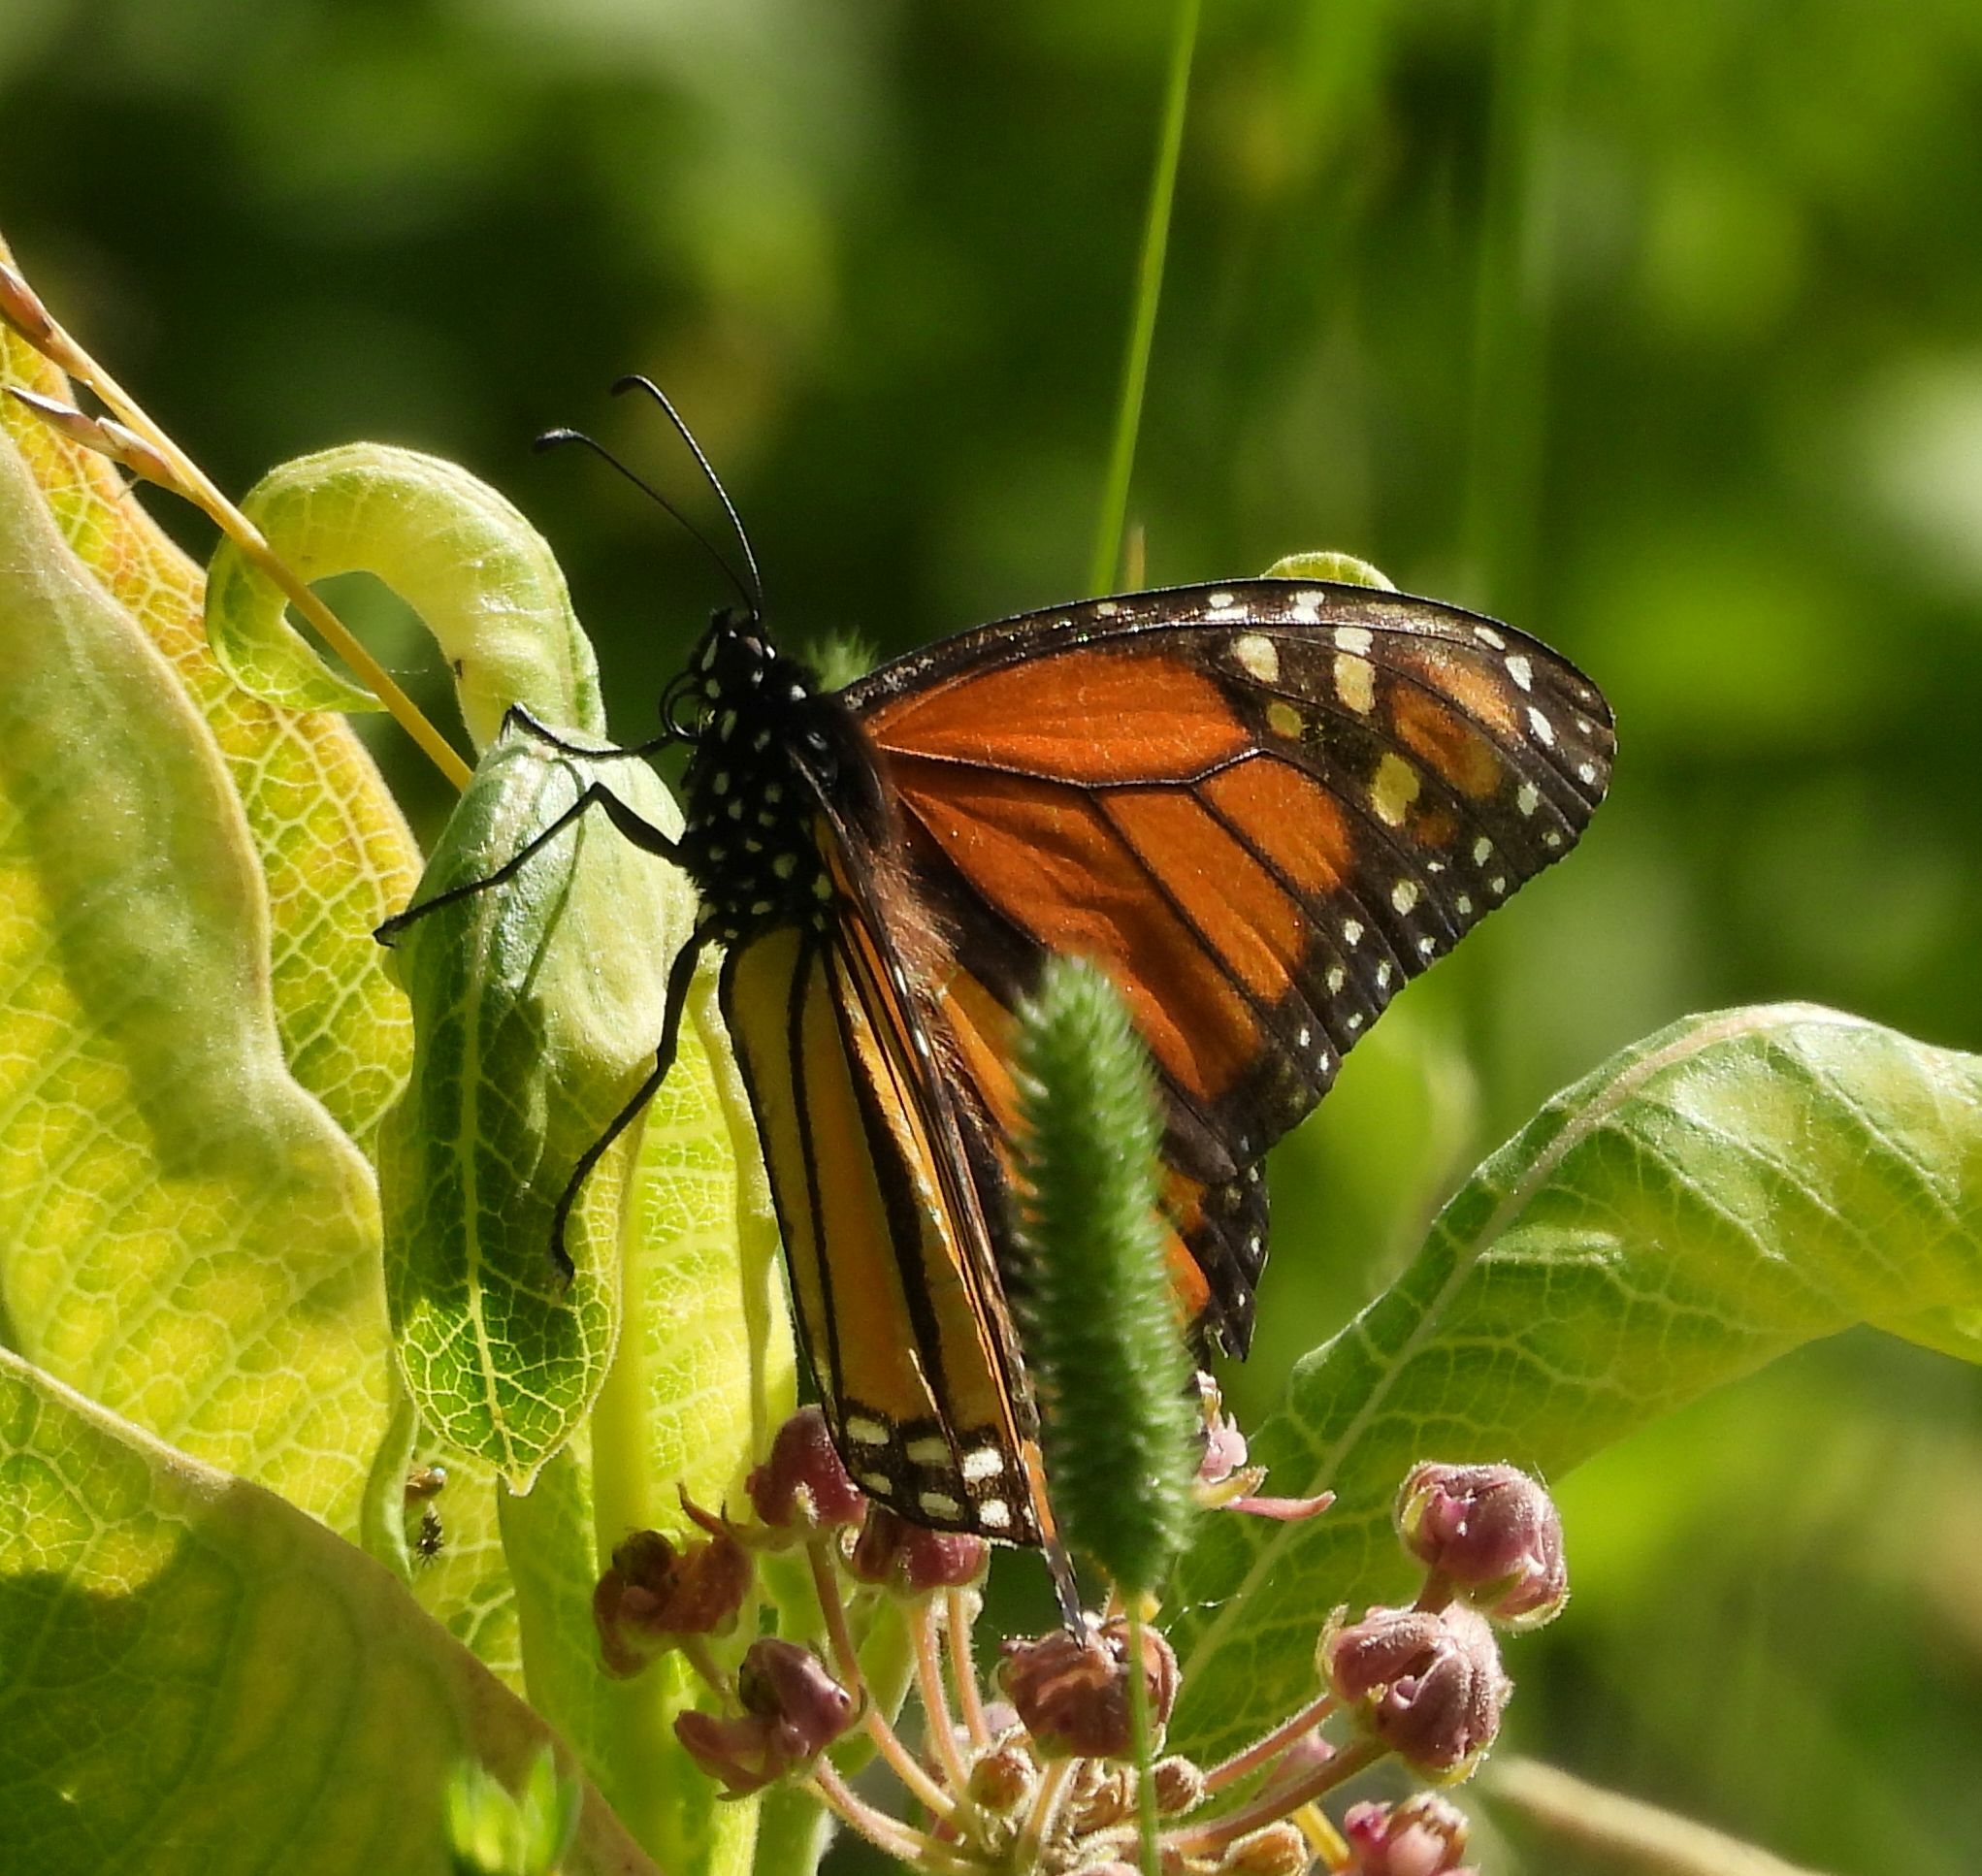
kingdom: Animalia
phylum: Arthropoda
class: Insecta
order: Lepidoptera
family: Nymphalidae
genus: Danaus
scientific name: Danaus plexippus
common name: Monarch
